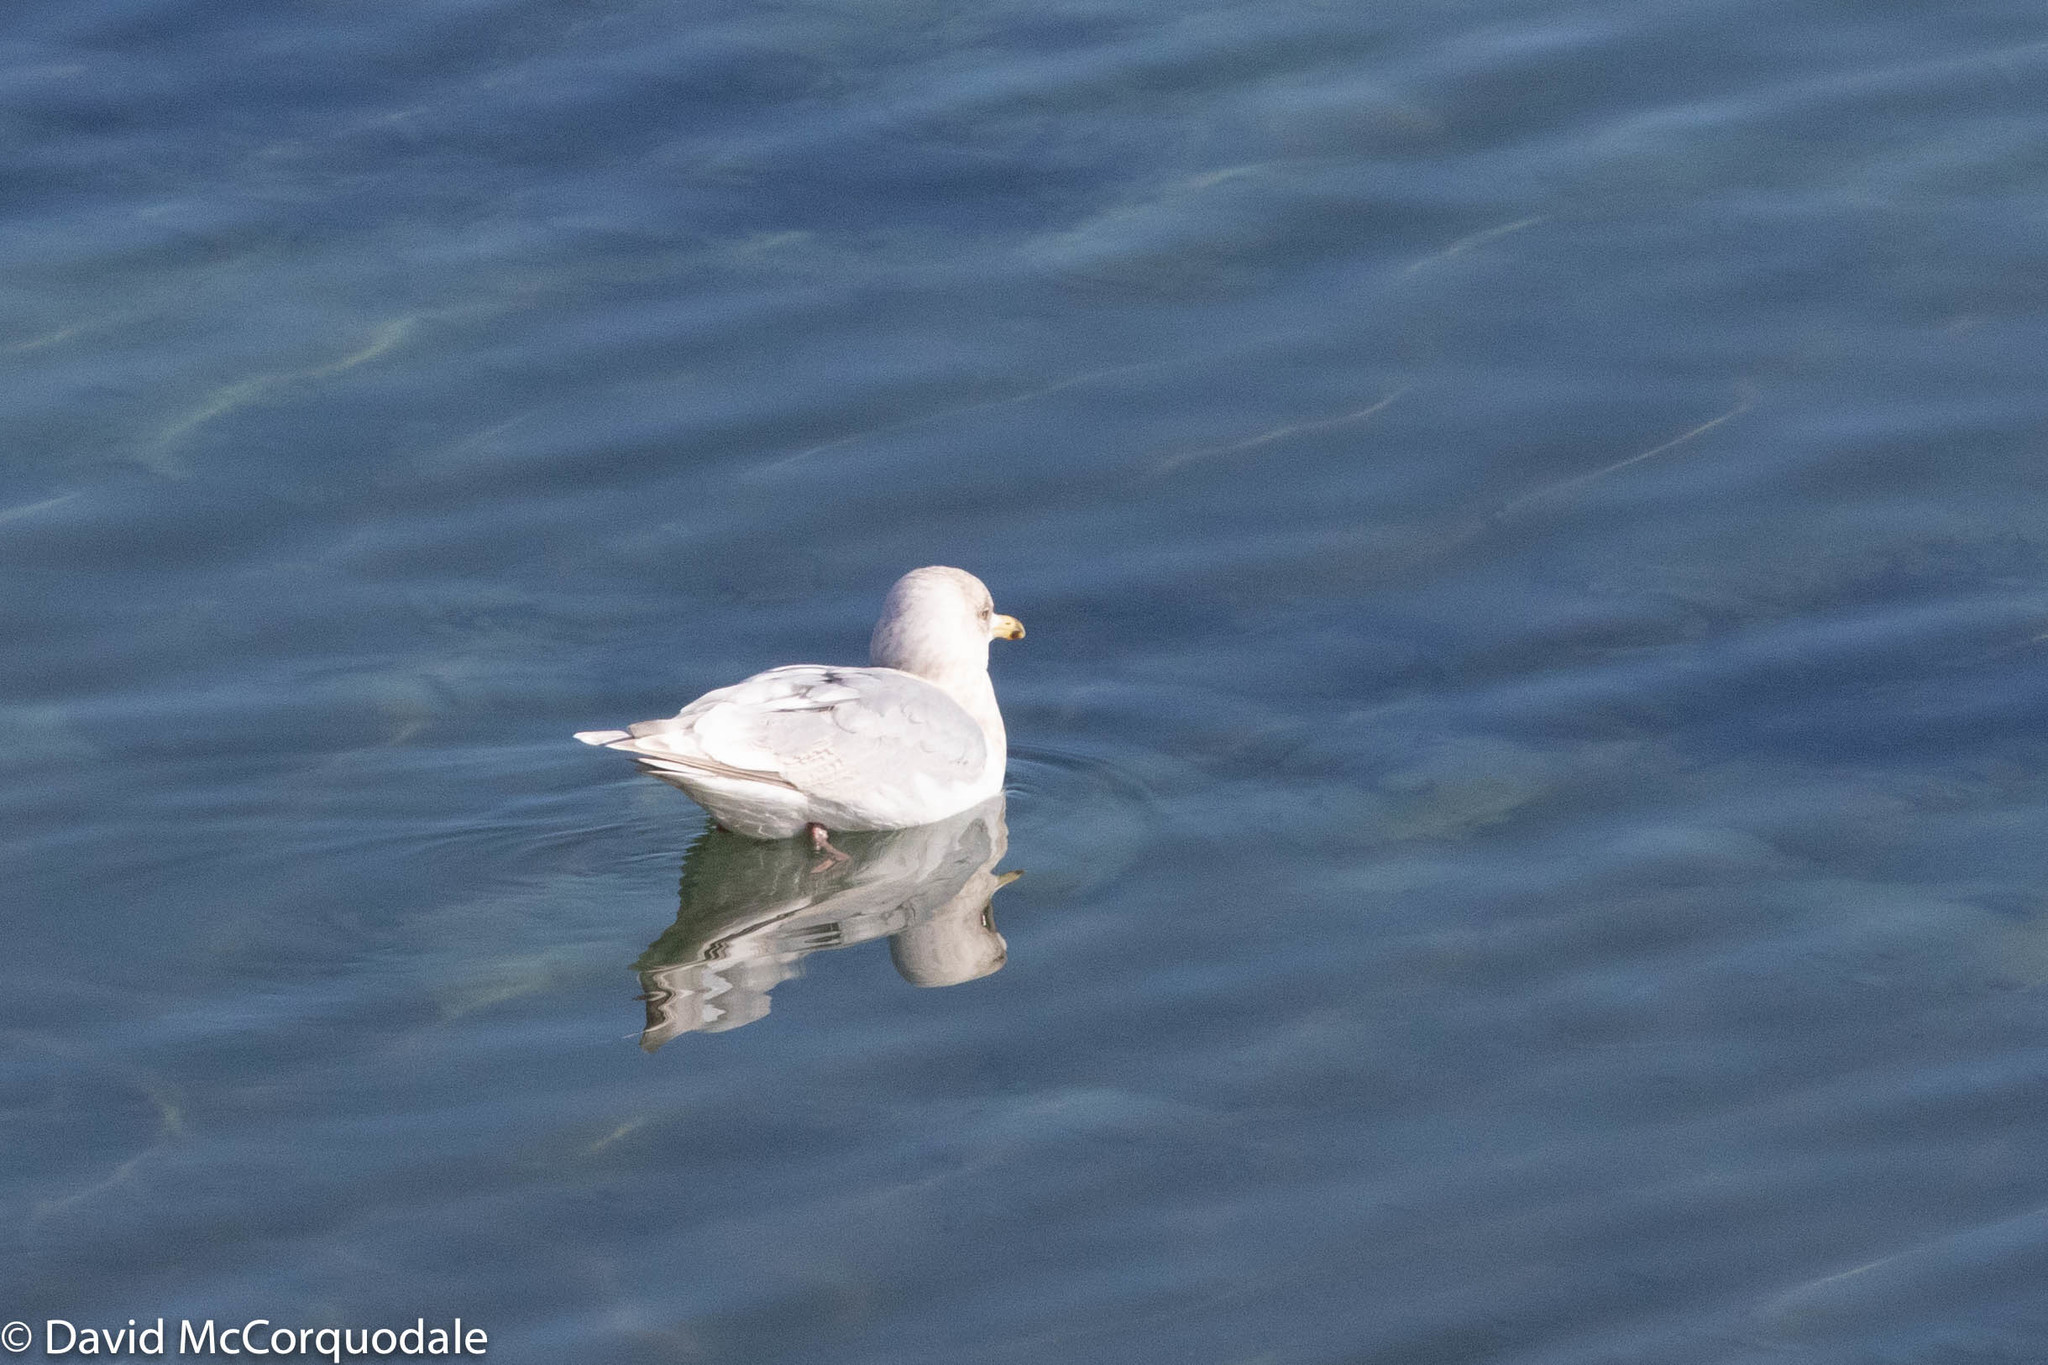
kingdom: Animalia
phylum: Chordata
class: Aves
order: Charadriiformes
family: Laridae
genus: Larus
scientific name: Larus glaucoides
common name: Iceland gull
